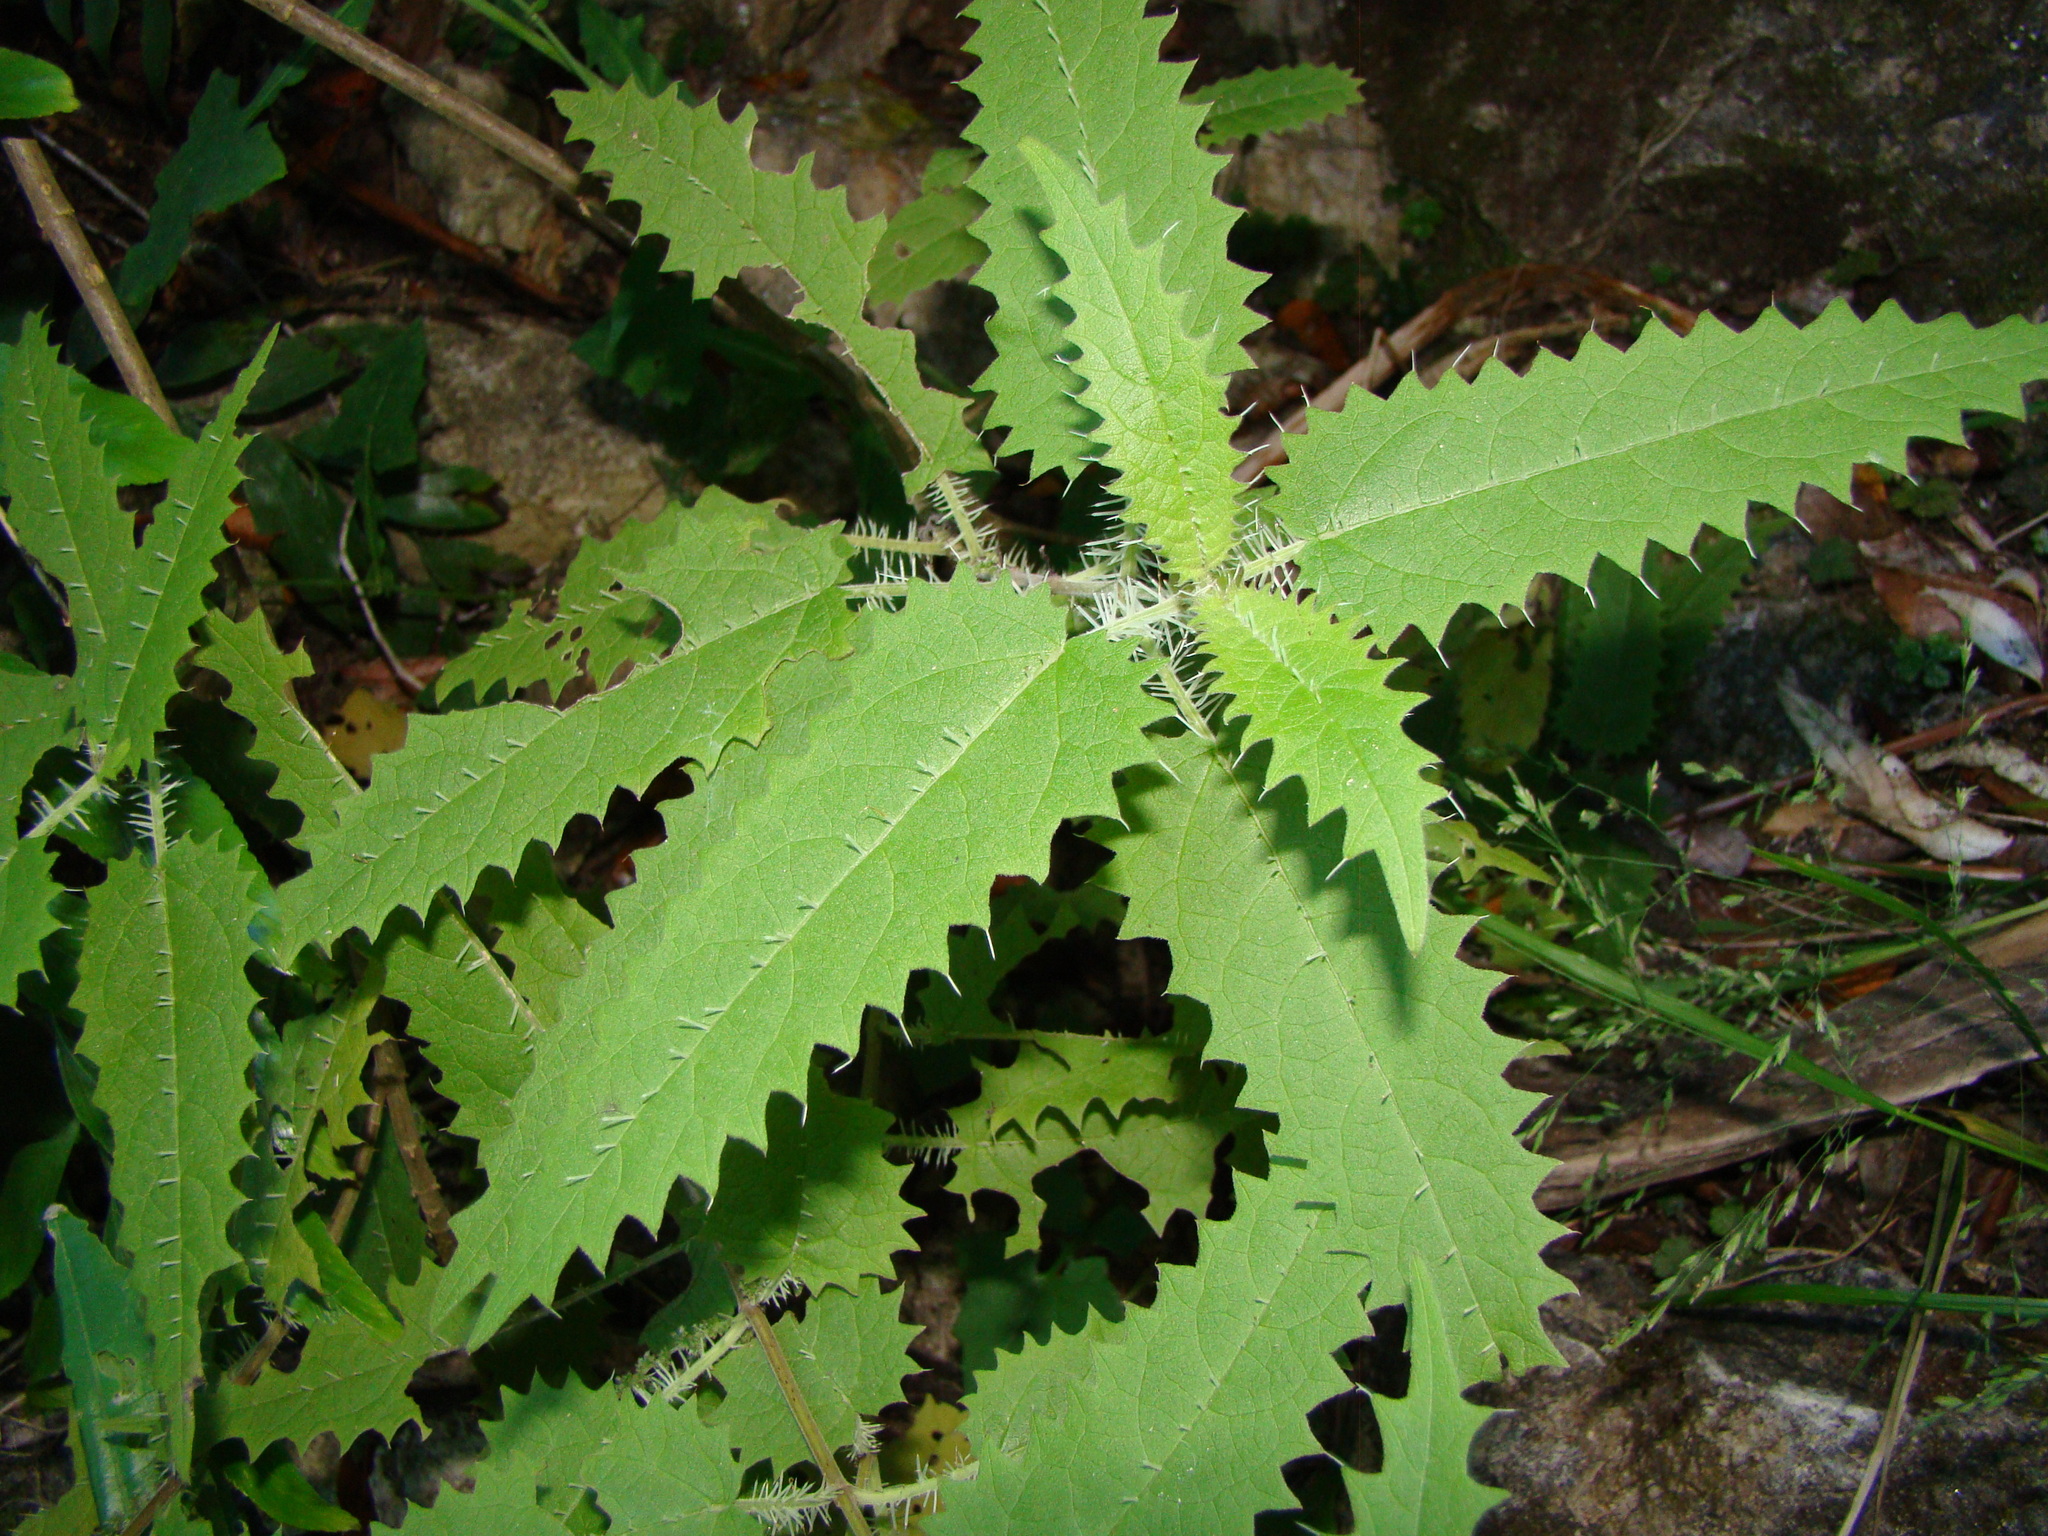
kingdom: Plantae
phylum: Tracheophyta
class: Magnoliopsida
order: Rosales
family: Urticaceae
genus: Urtica
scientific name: Urtica ferox
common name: Tree nettle
